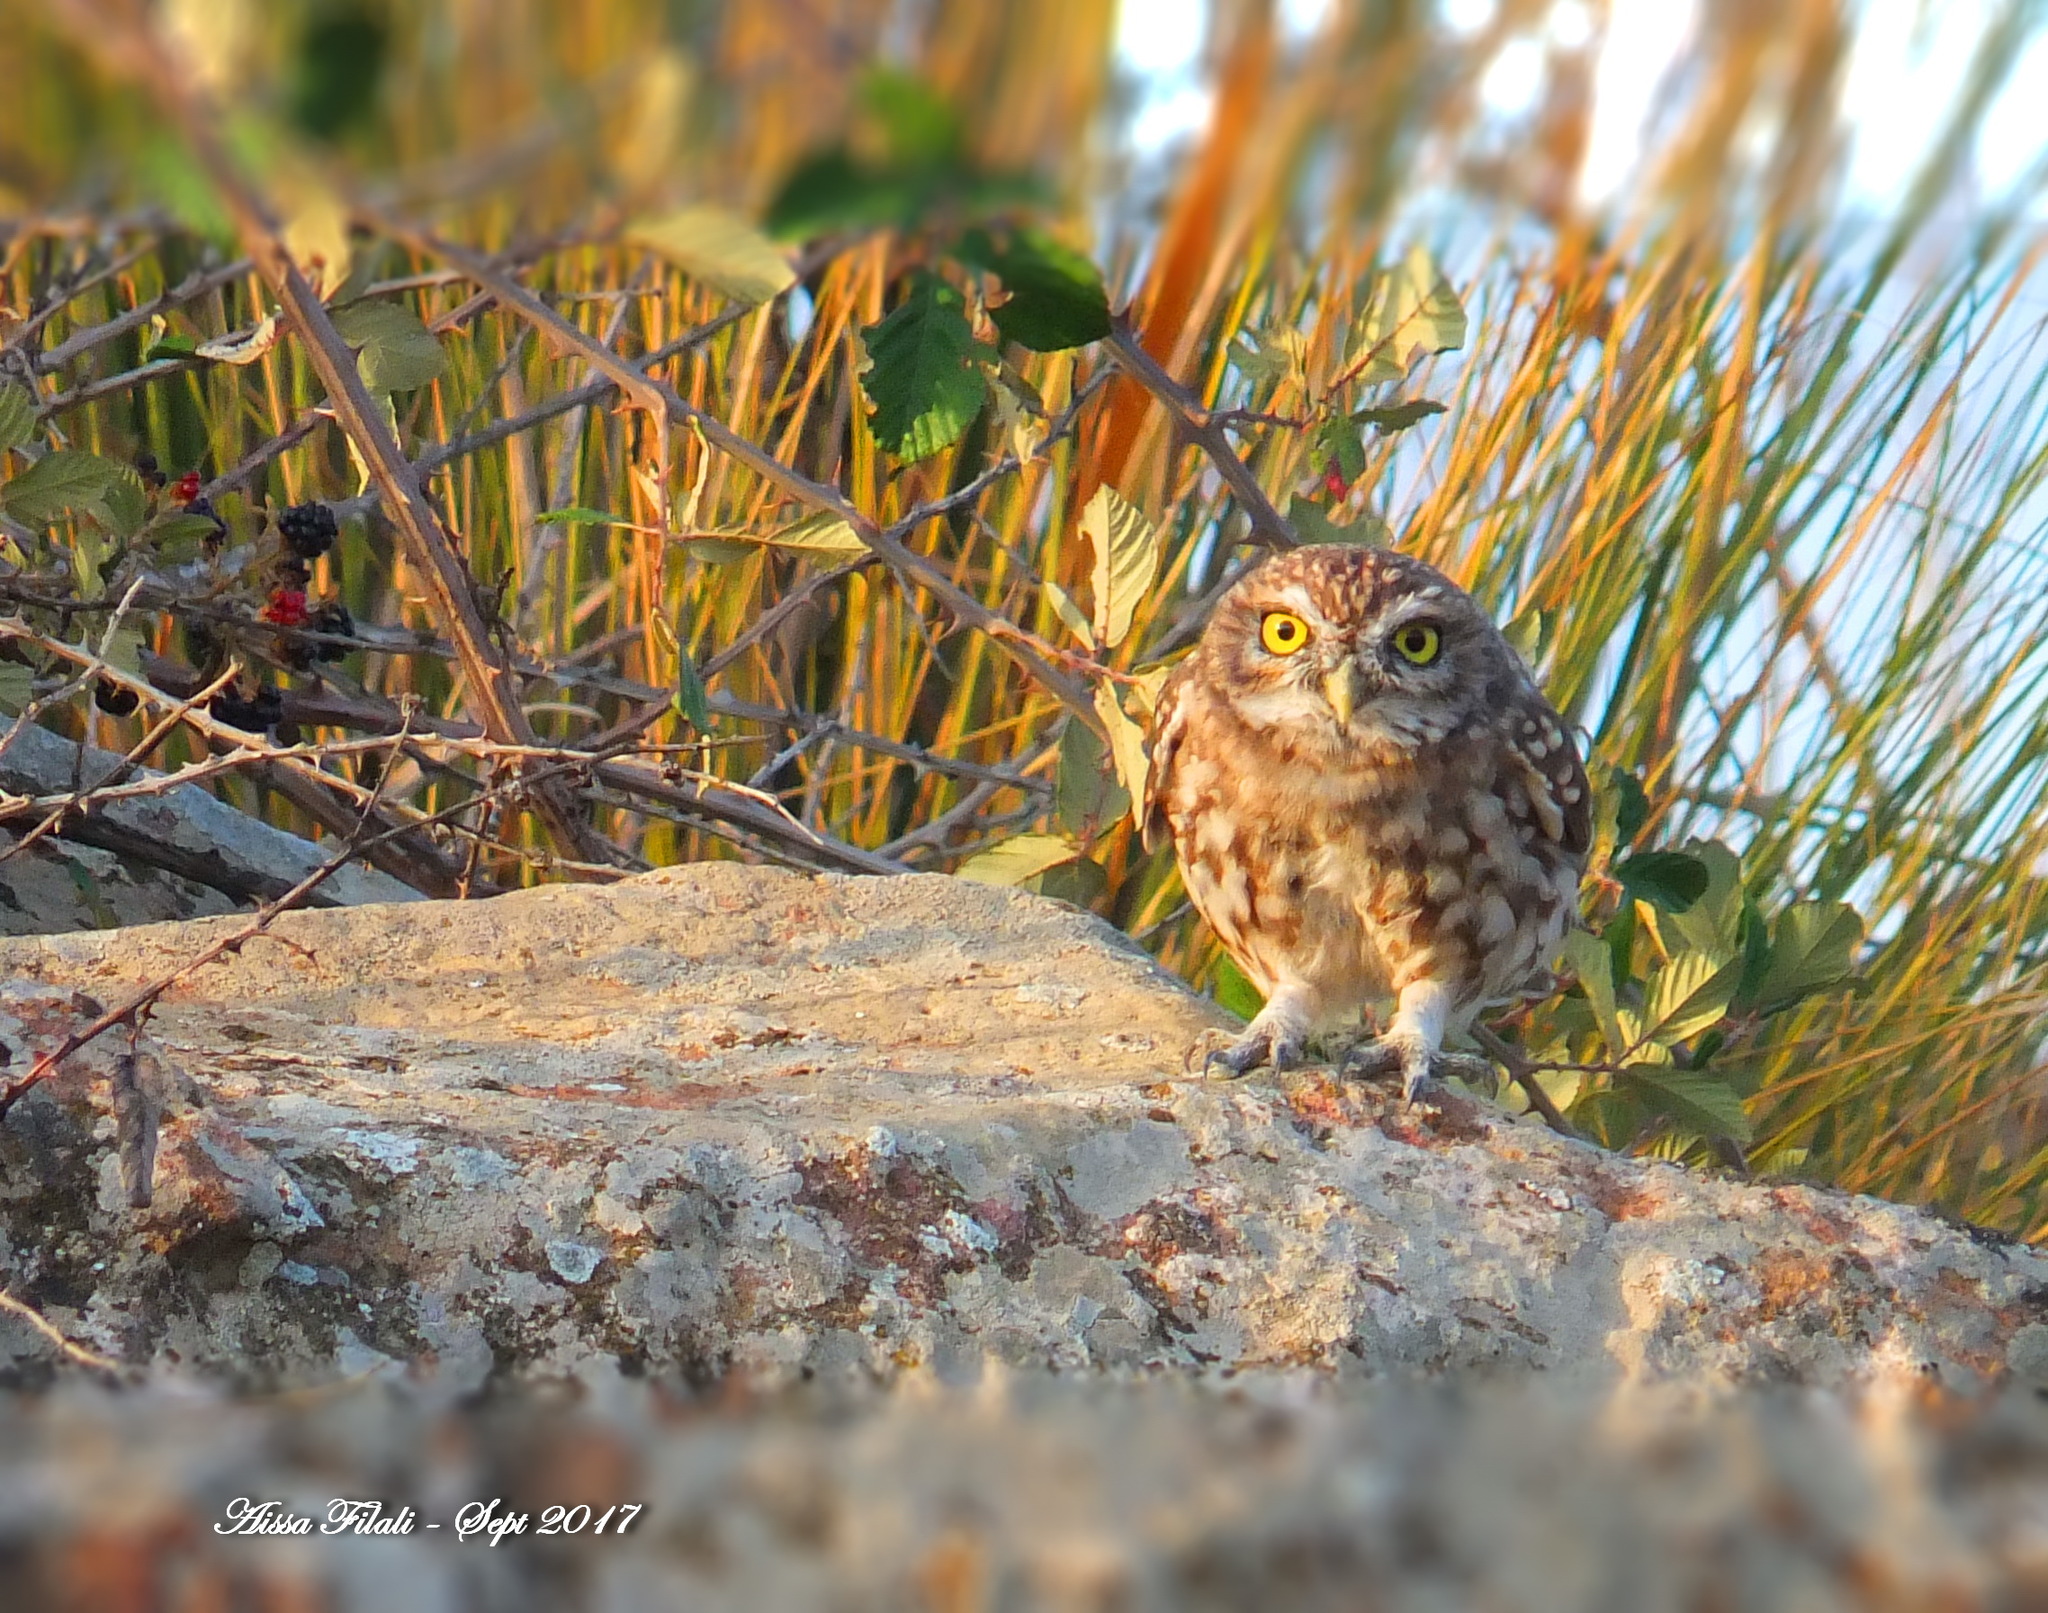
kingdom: Animalia
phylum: Chordata
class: Aves
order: Strigiformes
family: Strigidae
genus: Athene
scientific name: Athene noctua
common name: Little owl
